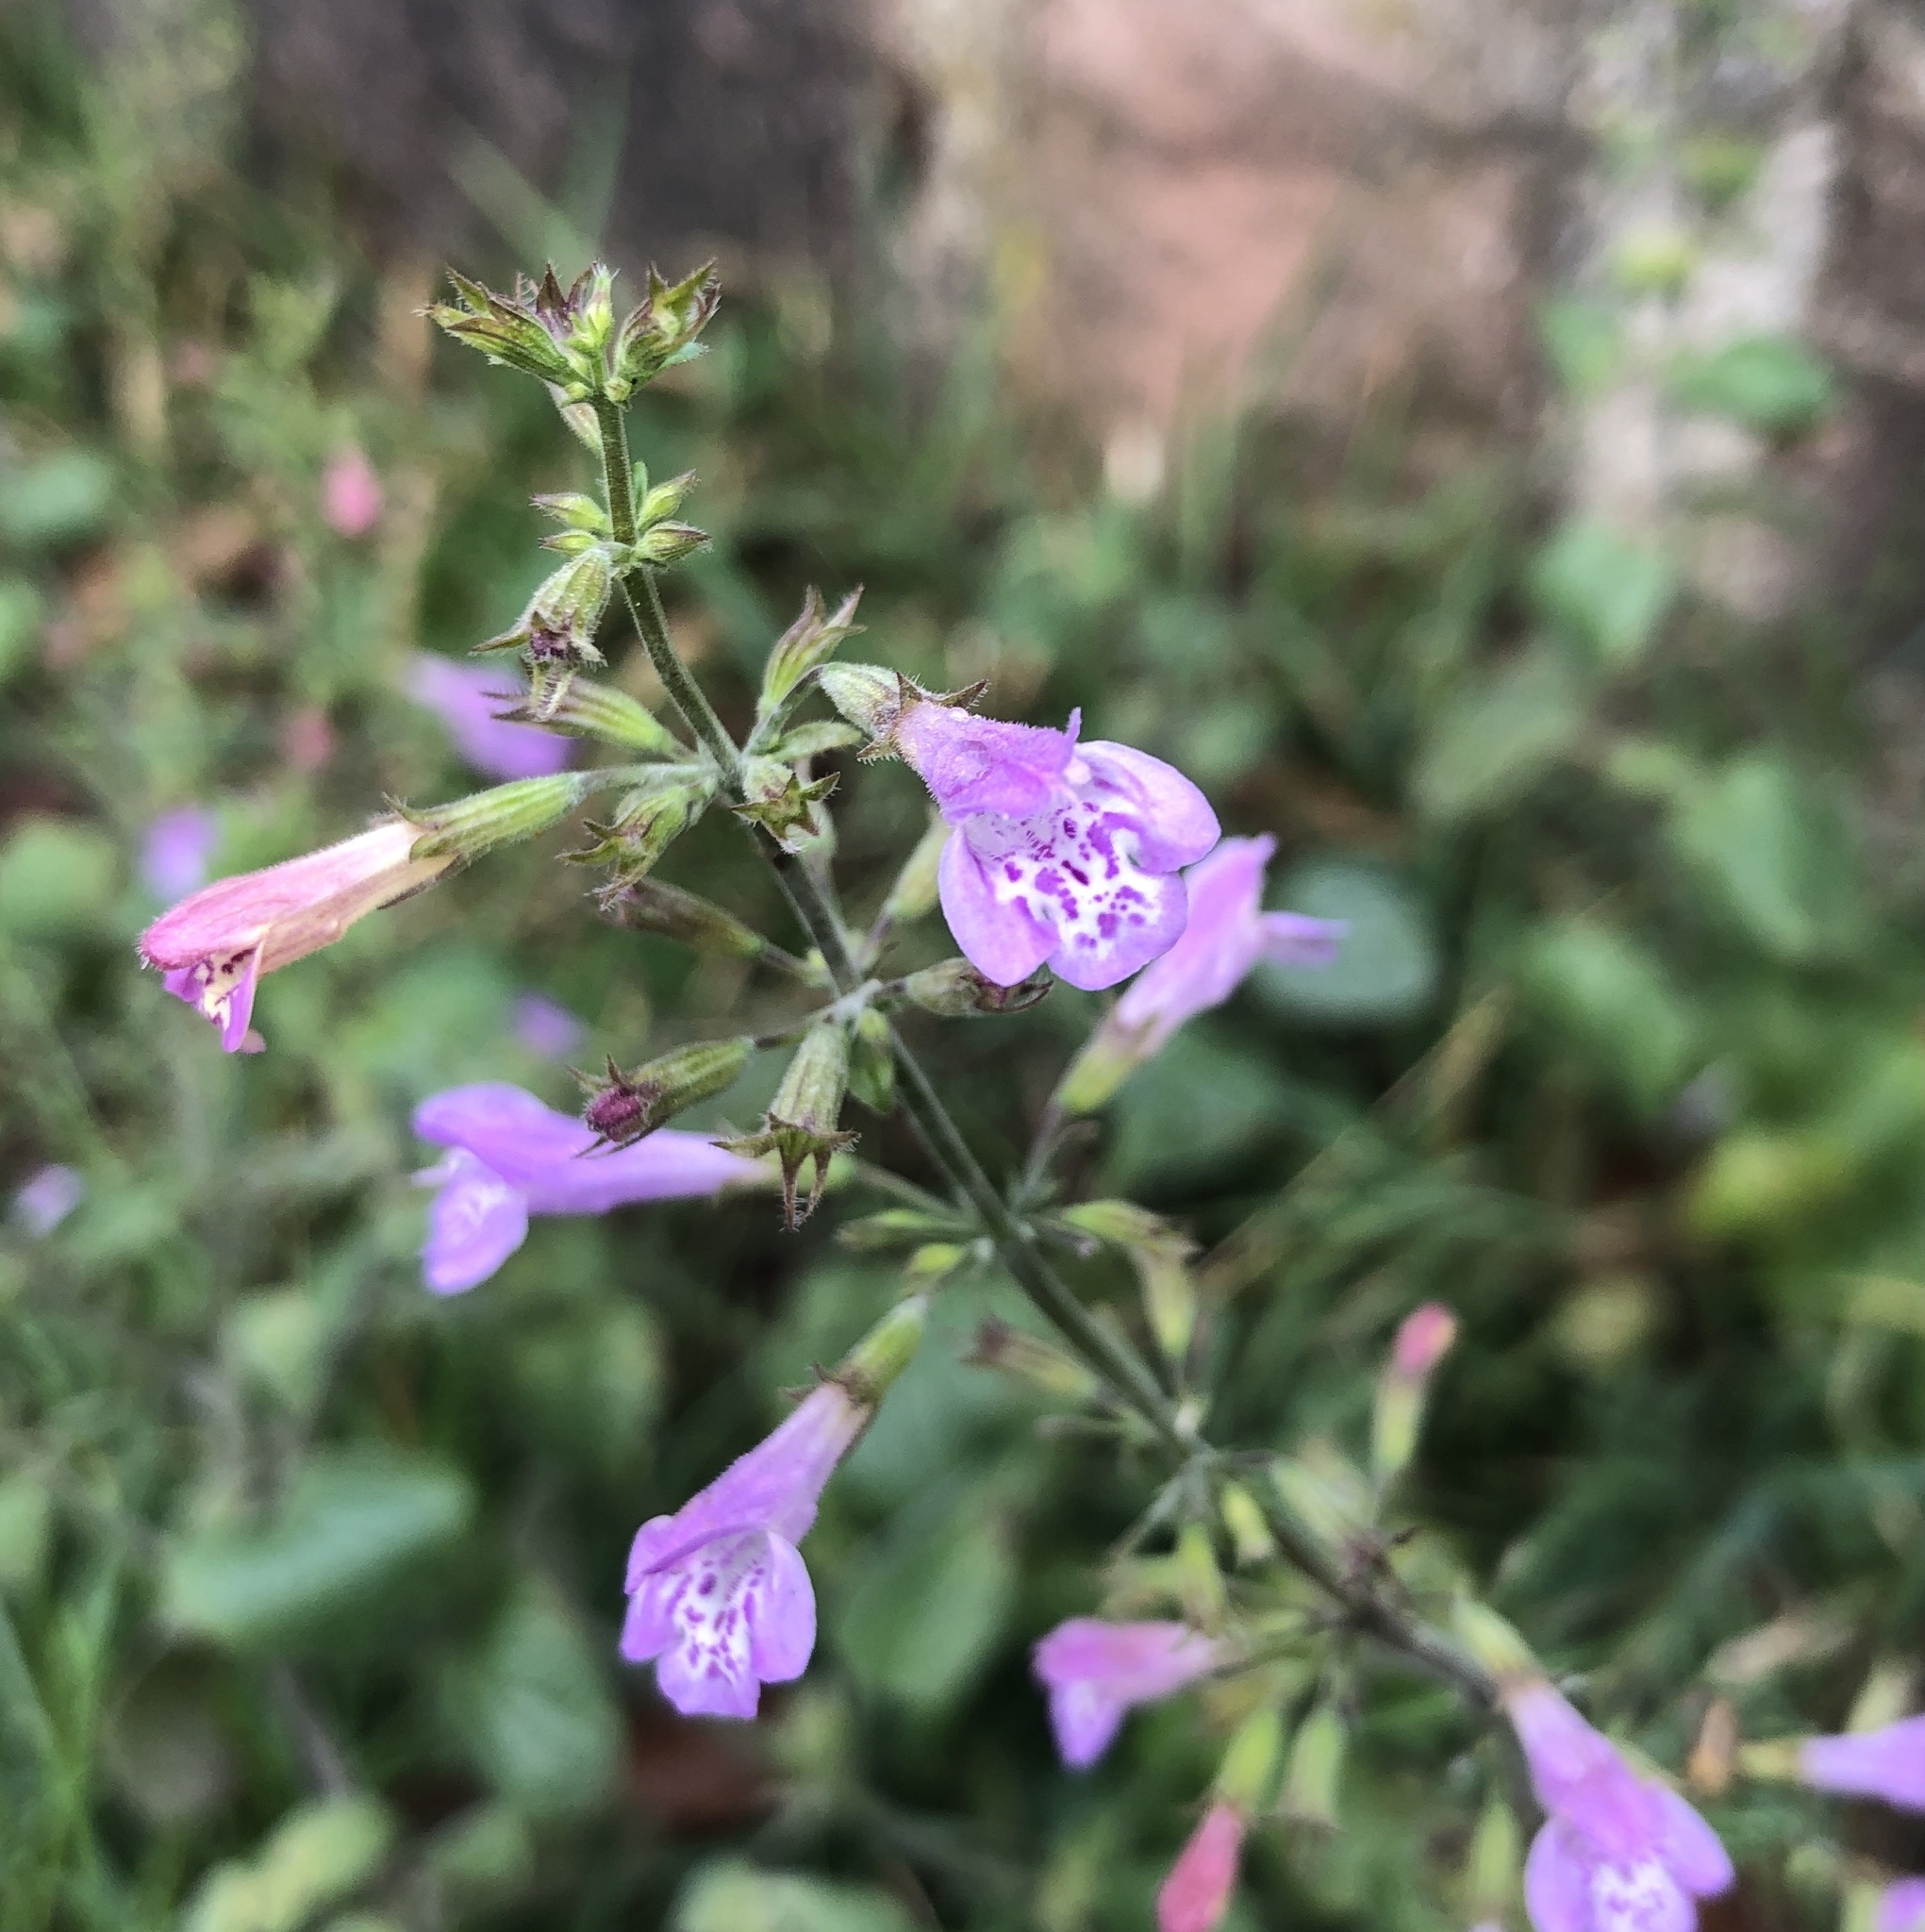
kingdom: Plantae
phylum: Tracheophyta
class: Magnoliopsida
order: Lamiales
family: Lamiaceae
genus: Clinopodium
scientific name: Clinopodium menthifolium
